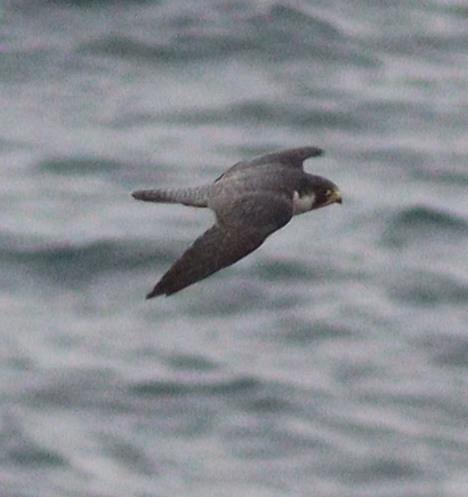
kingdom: Animalia
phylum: Chordata
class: Aves
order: Falconiformes
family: Falconidae
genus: Falco
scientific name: Falco peregrinus
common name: Peregrine falcon
